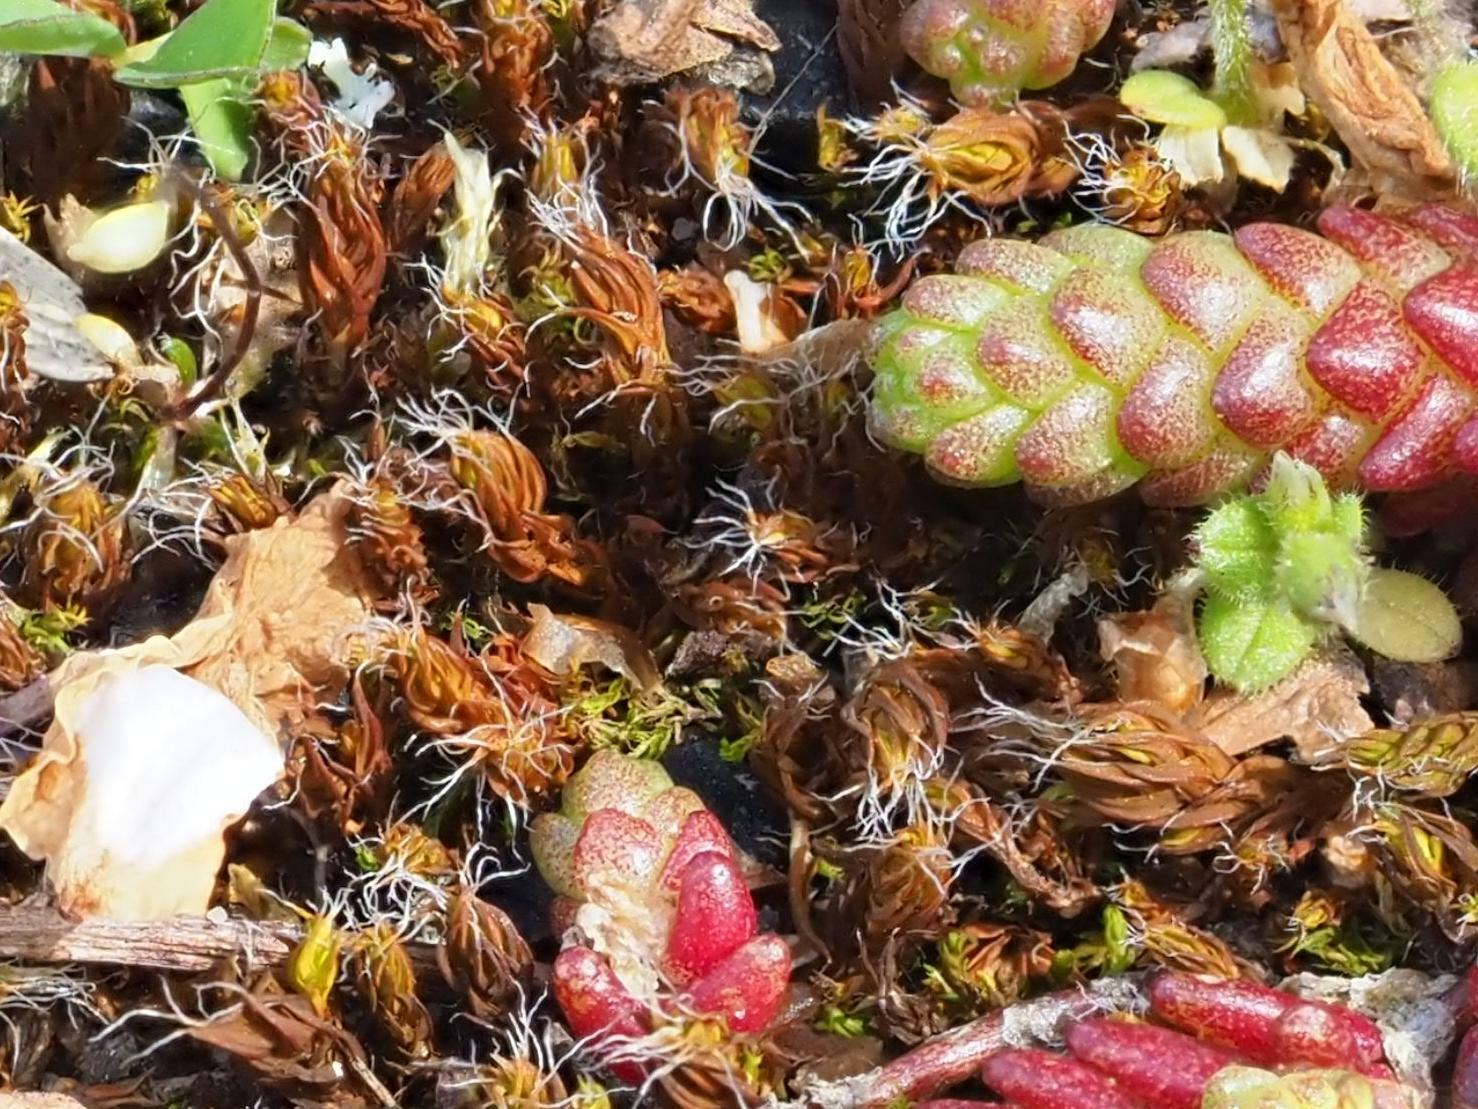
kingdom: Plantae
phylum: Bryophyta
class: Bryopsida
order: Pottiales
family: Pottiaceae
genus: Syntrichia
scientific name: Syntrichia ruralis
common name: Sidewalk screw moss
